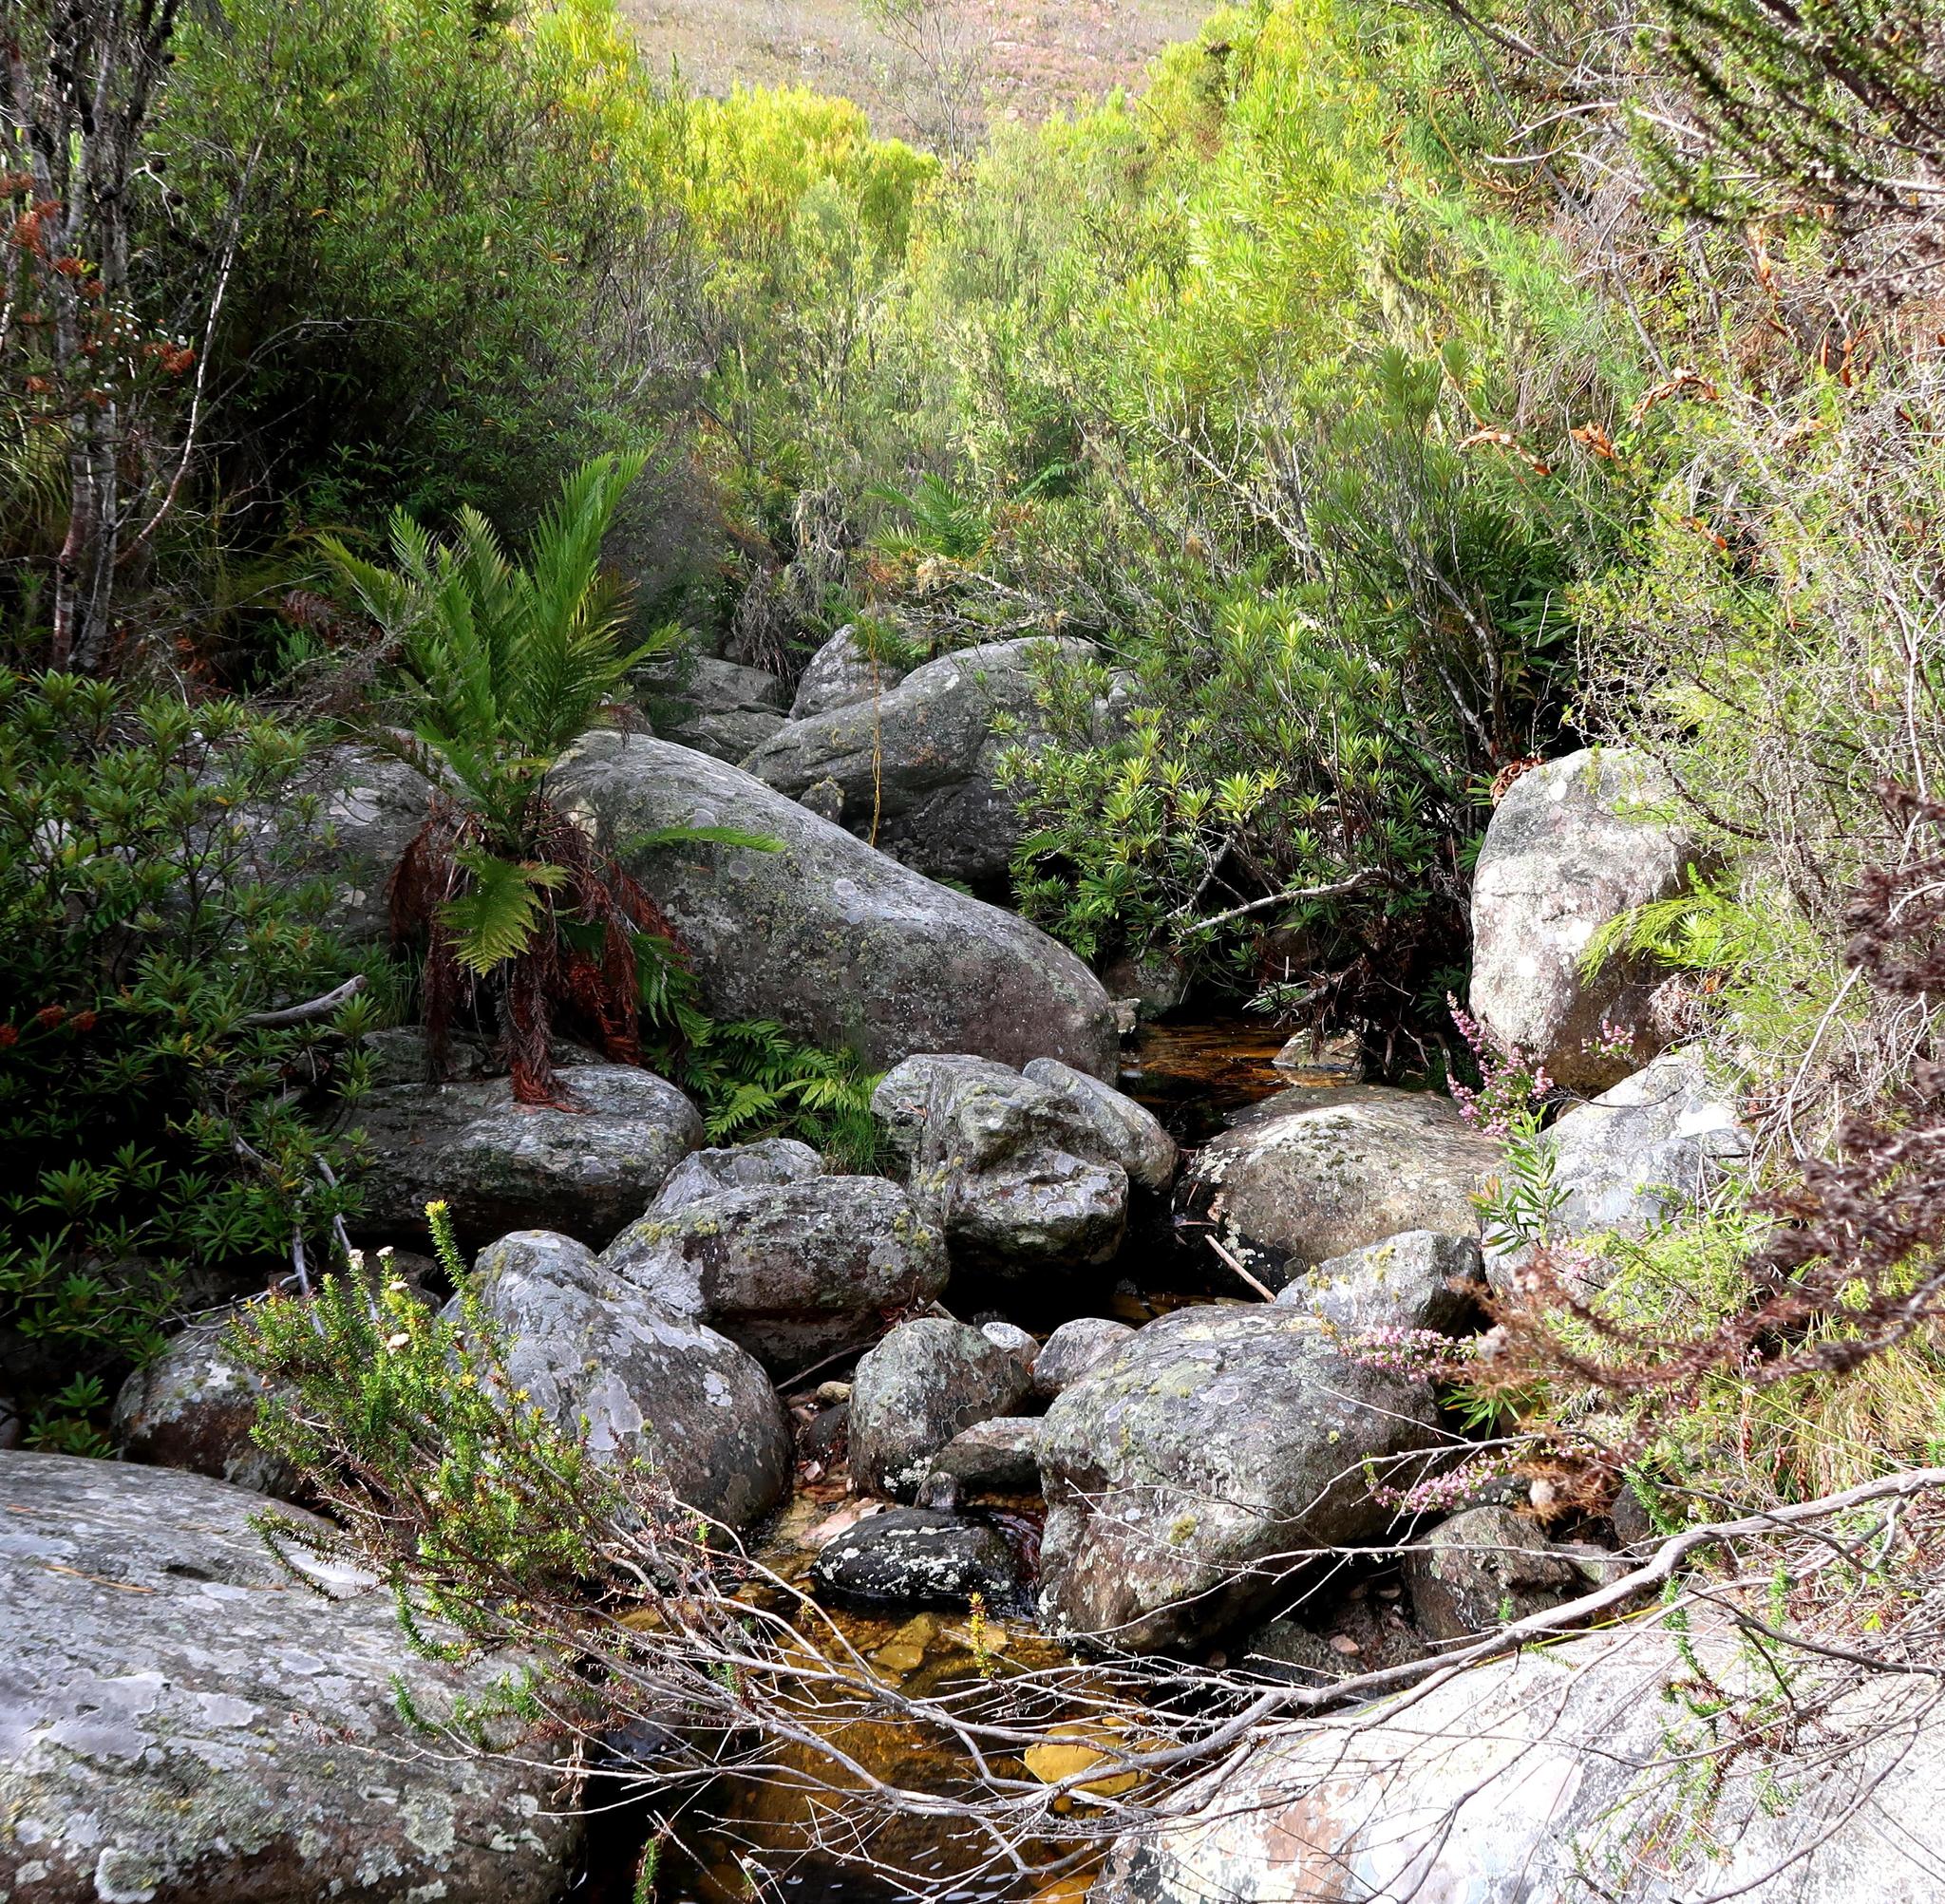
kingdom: Plantae
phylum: Tracheophyta
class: Polypodiopsida
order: Osmundales
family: Osmundaceae
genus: Todea
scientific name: Todea barbara
